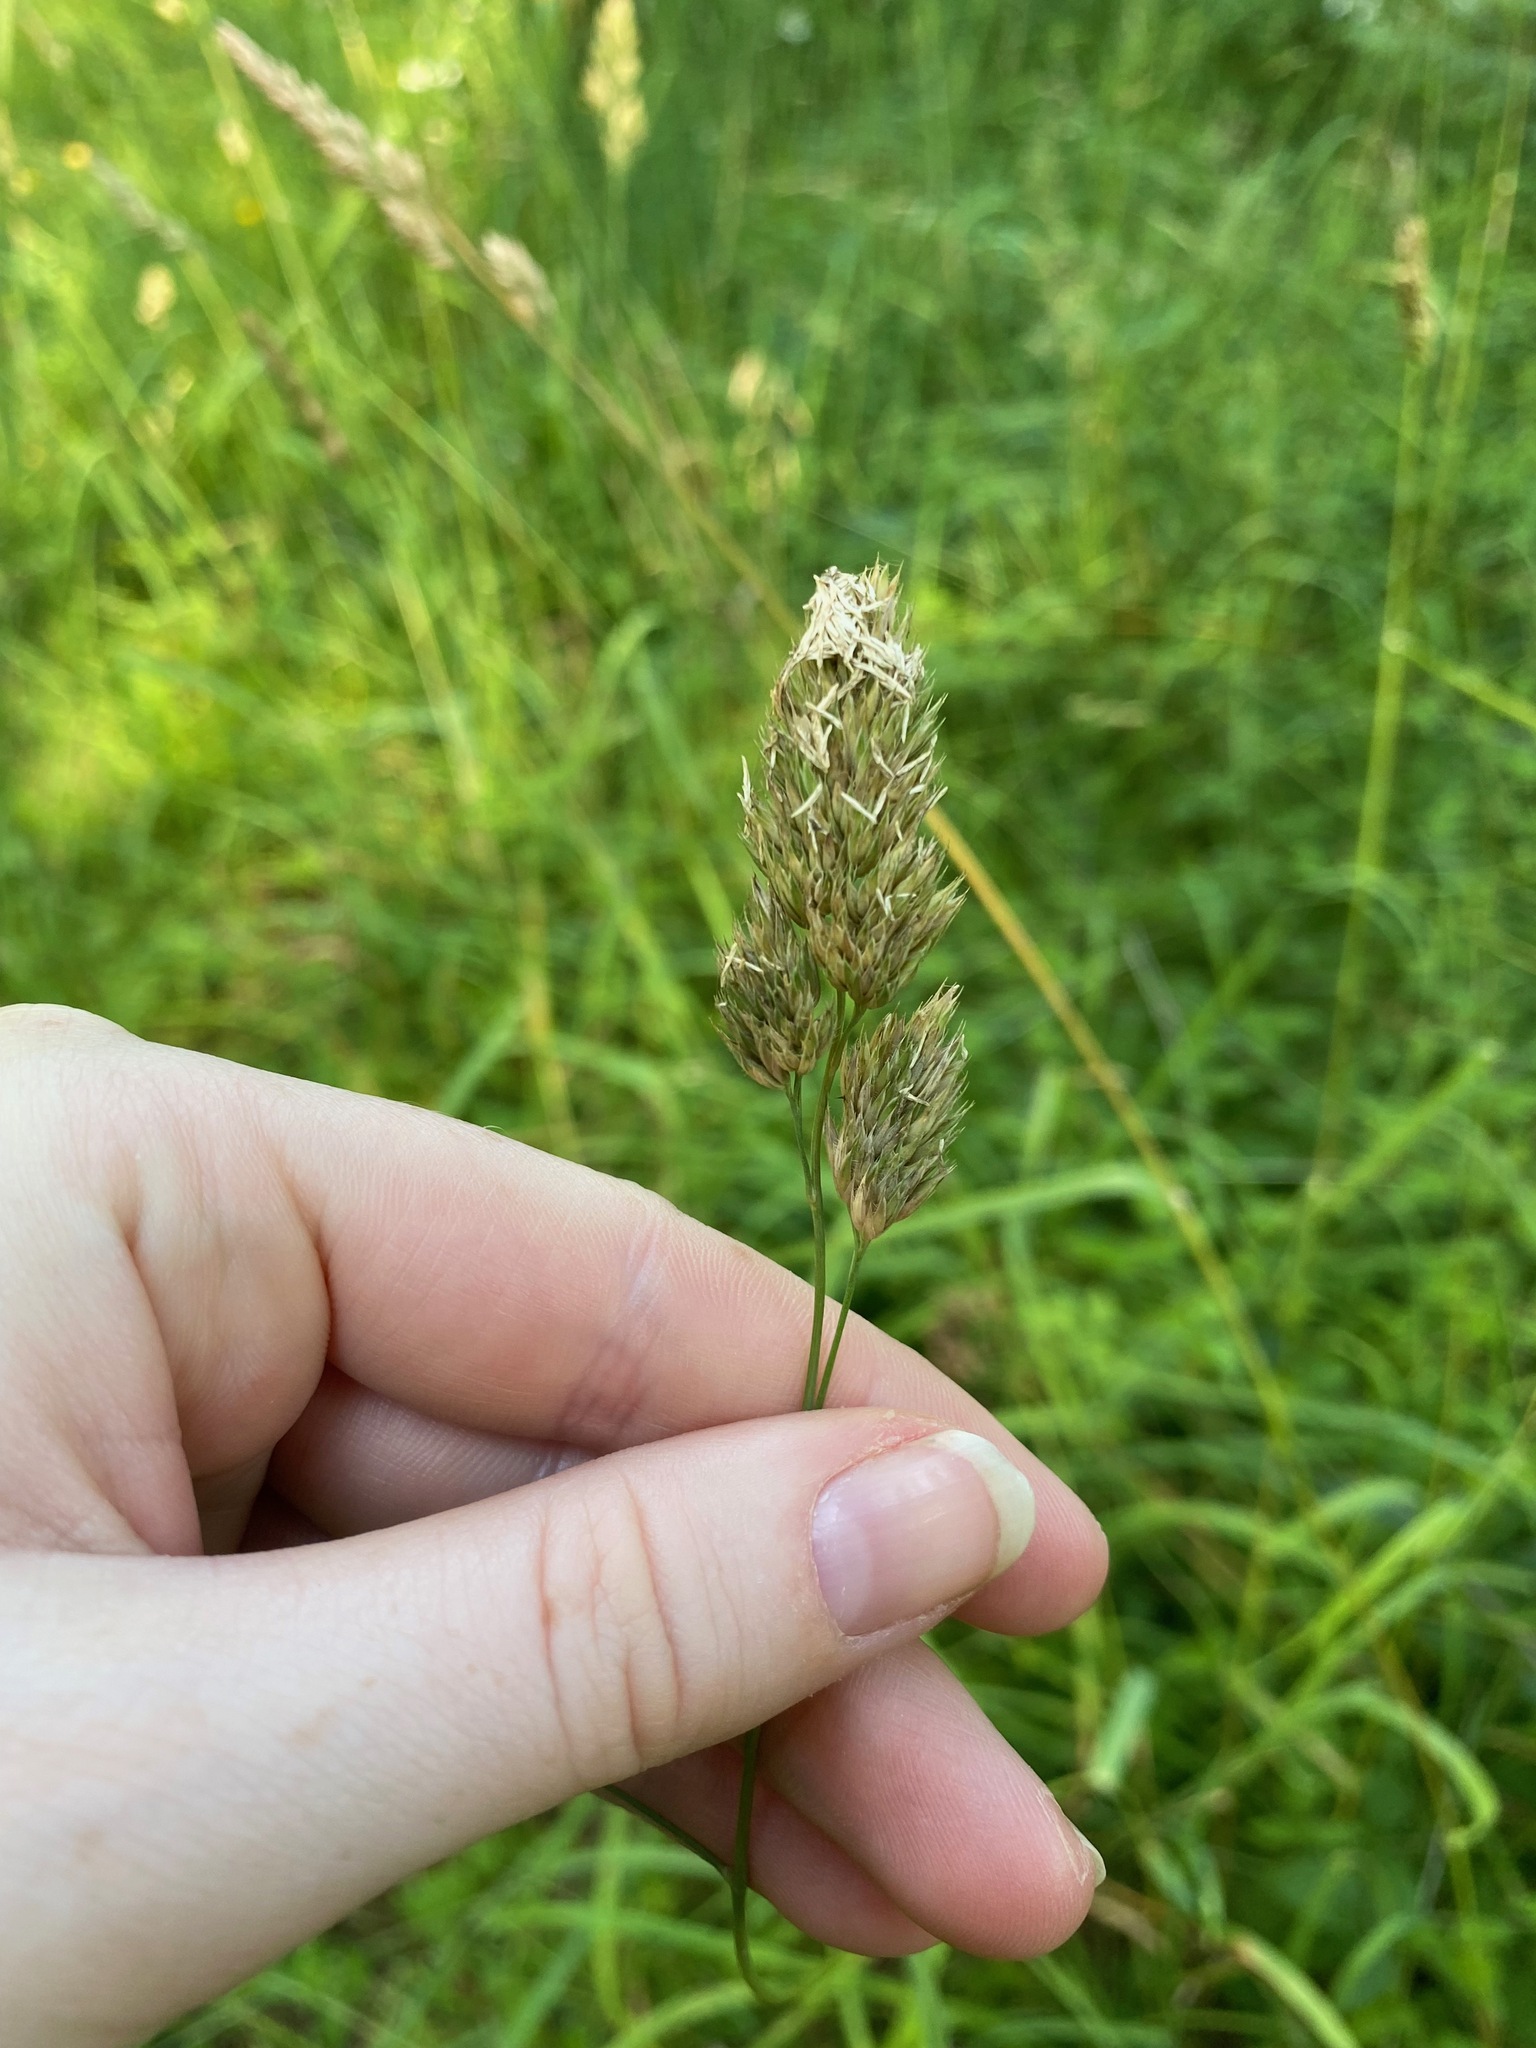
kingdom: Plantae
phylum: Tracheophyta
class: Liliopsida
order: Poales
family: Poaceae
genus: Dactylis
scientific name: Dactylis glomerata
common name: Orchardgrass
